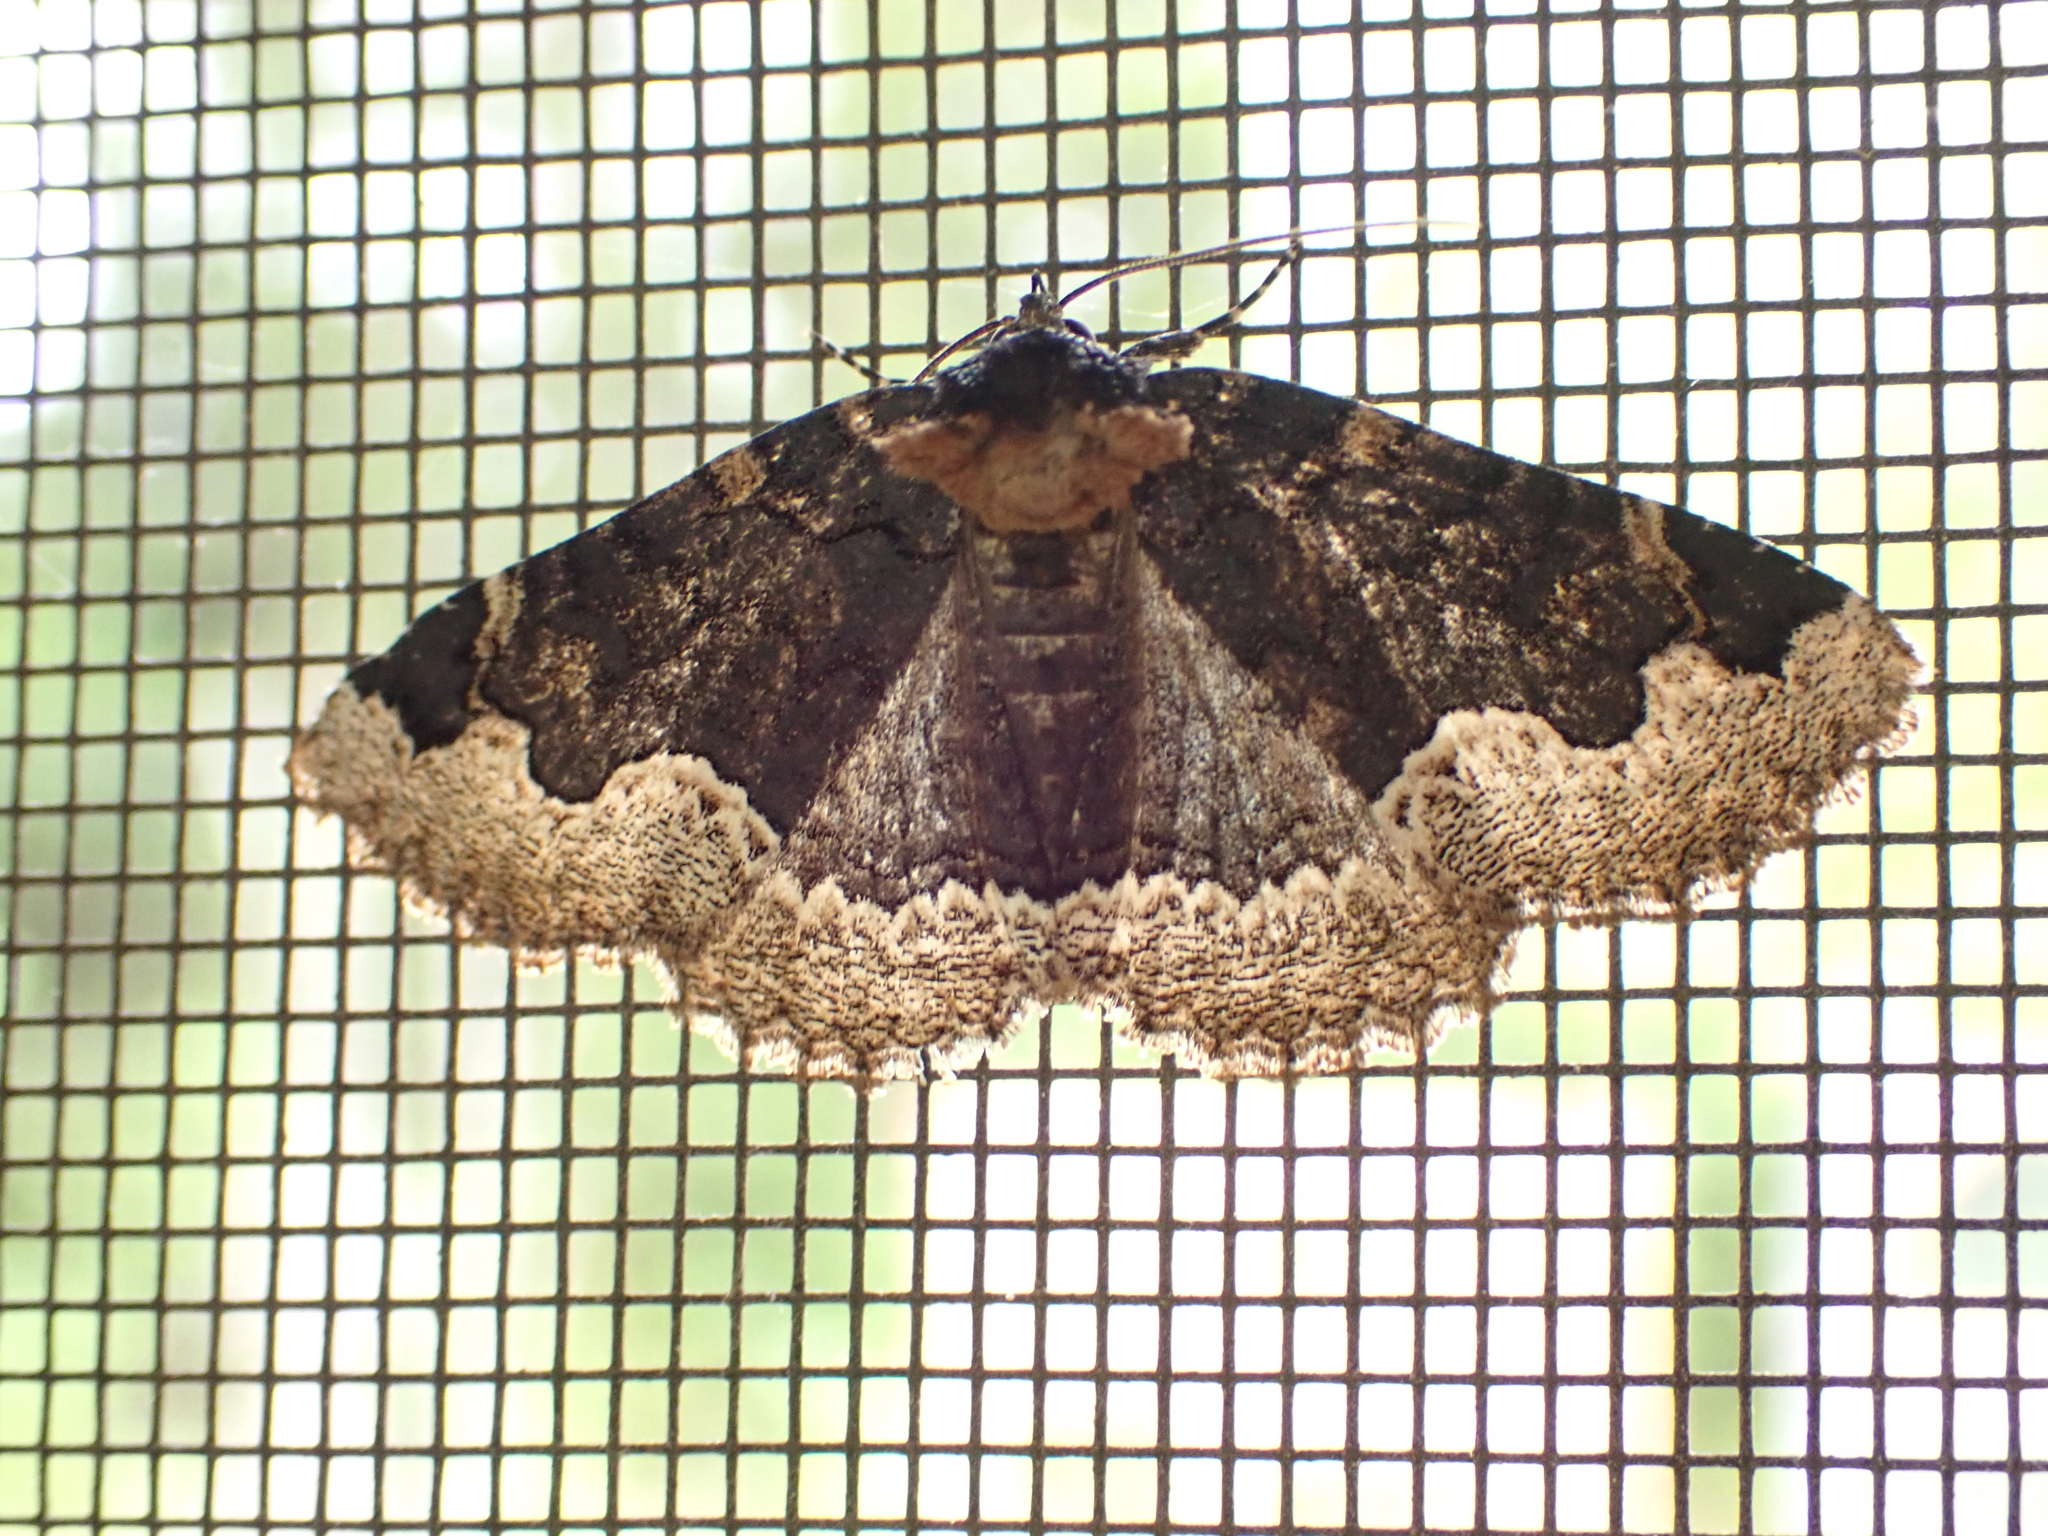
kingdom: Animalia
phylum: Arthropoda
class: Insecta
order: Lepidoptera
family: Erebidae
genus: Zale
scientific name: Zale horrida
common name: Horrid zale moth
